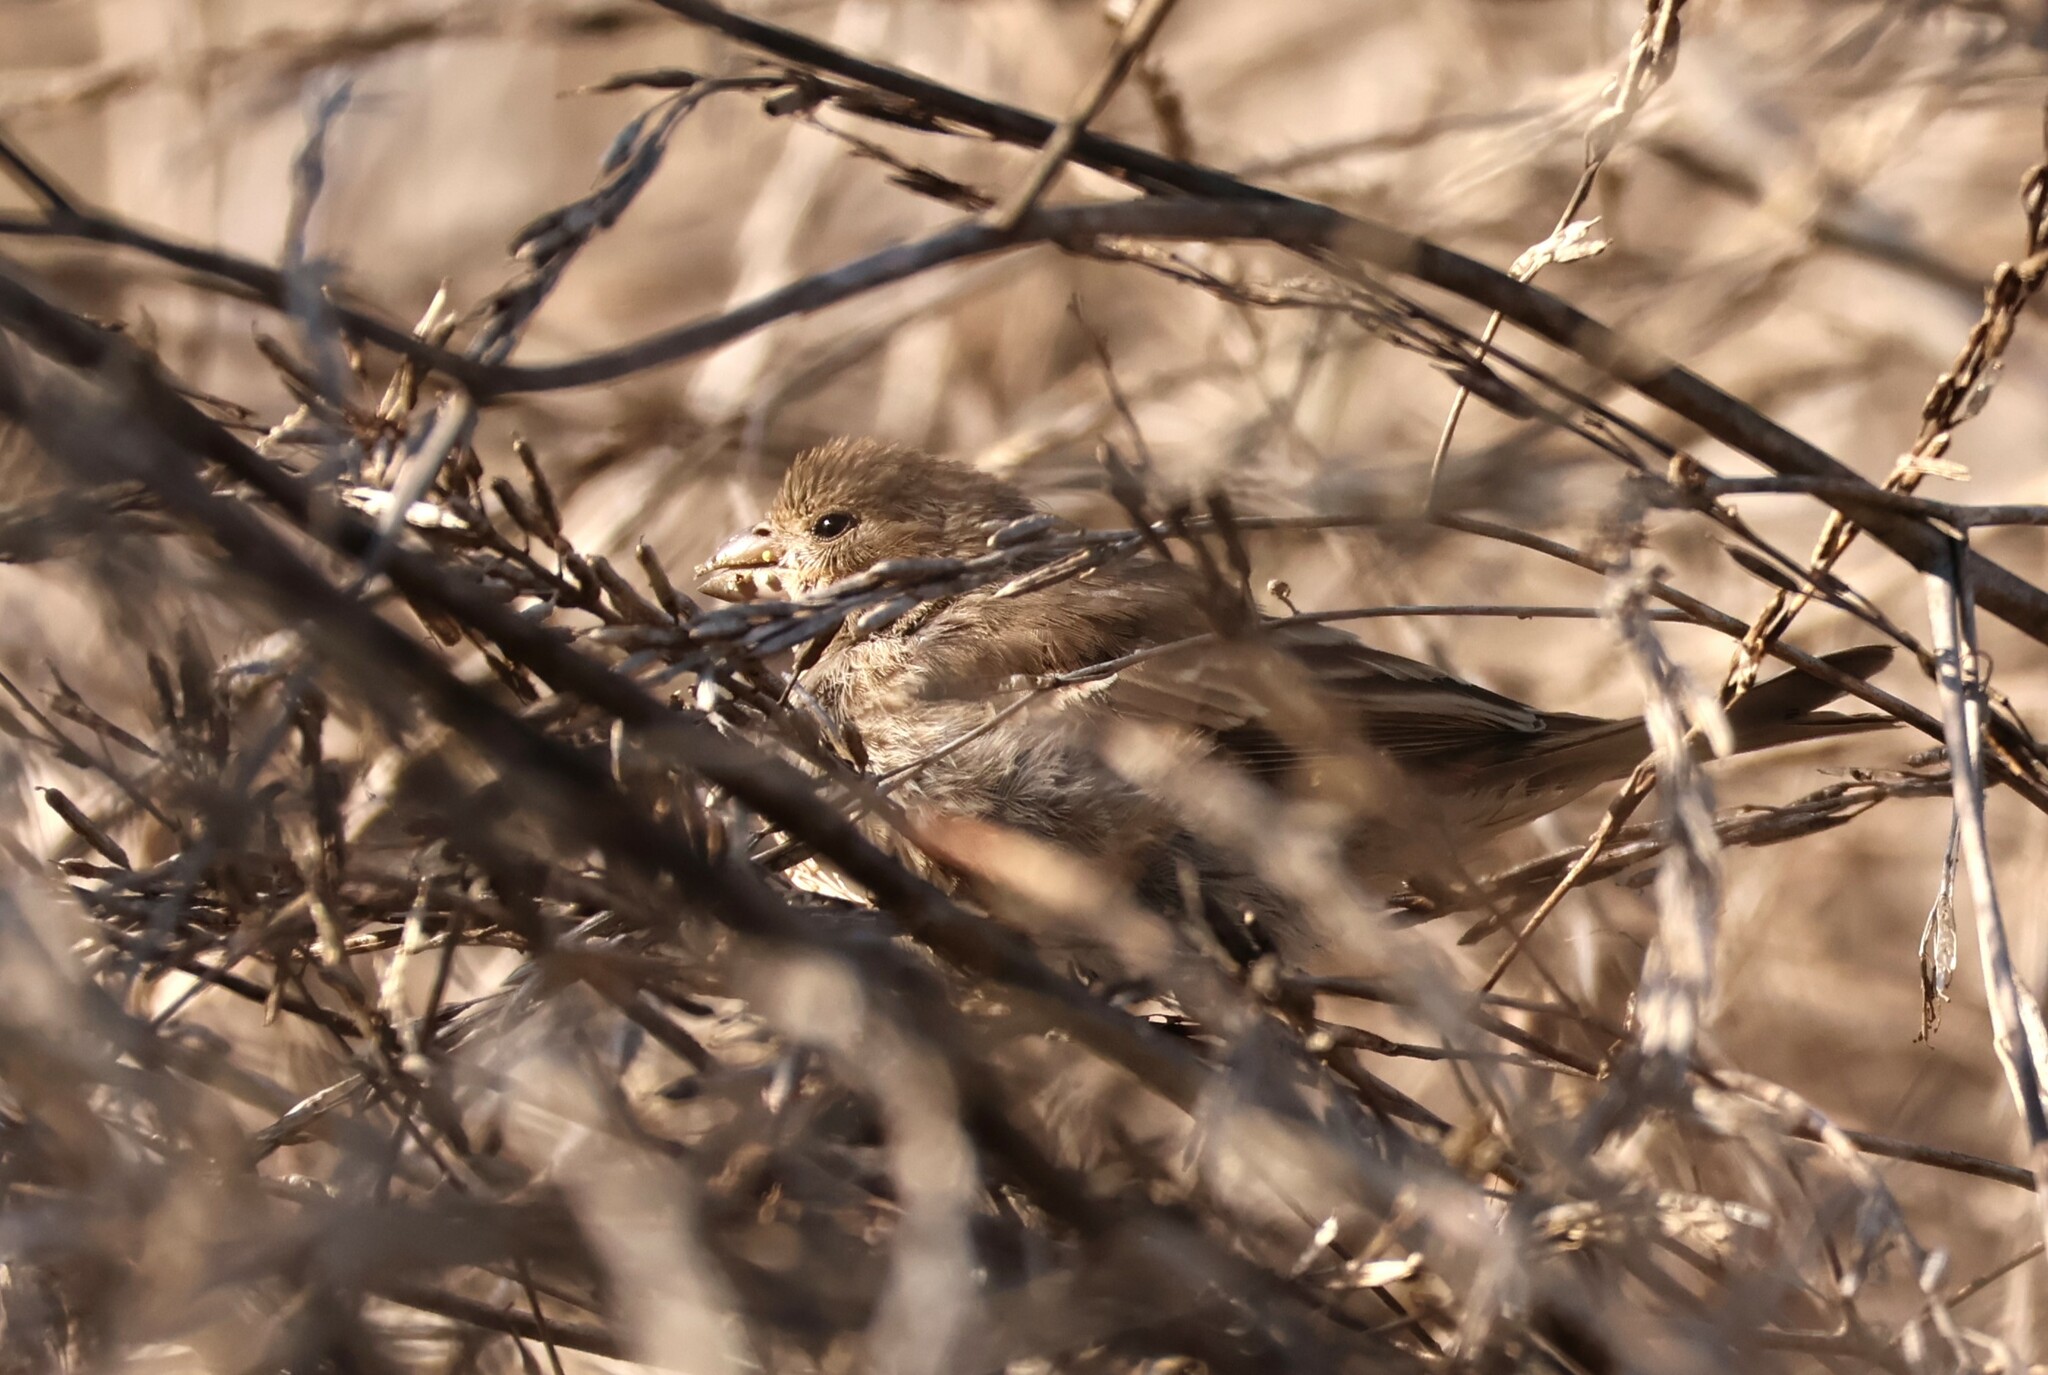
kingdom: Animalia
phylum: Chordata
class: Aves
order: Passeriformes
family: Fringillidae
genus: Haemorhous
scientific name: Haemorhous mexicanus
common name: House finch
